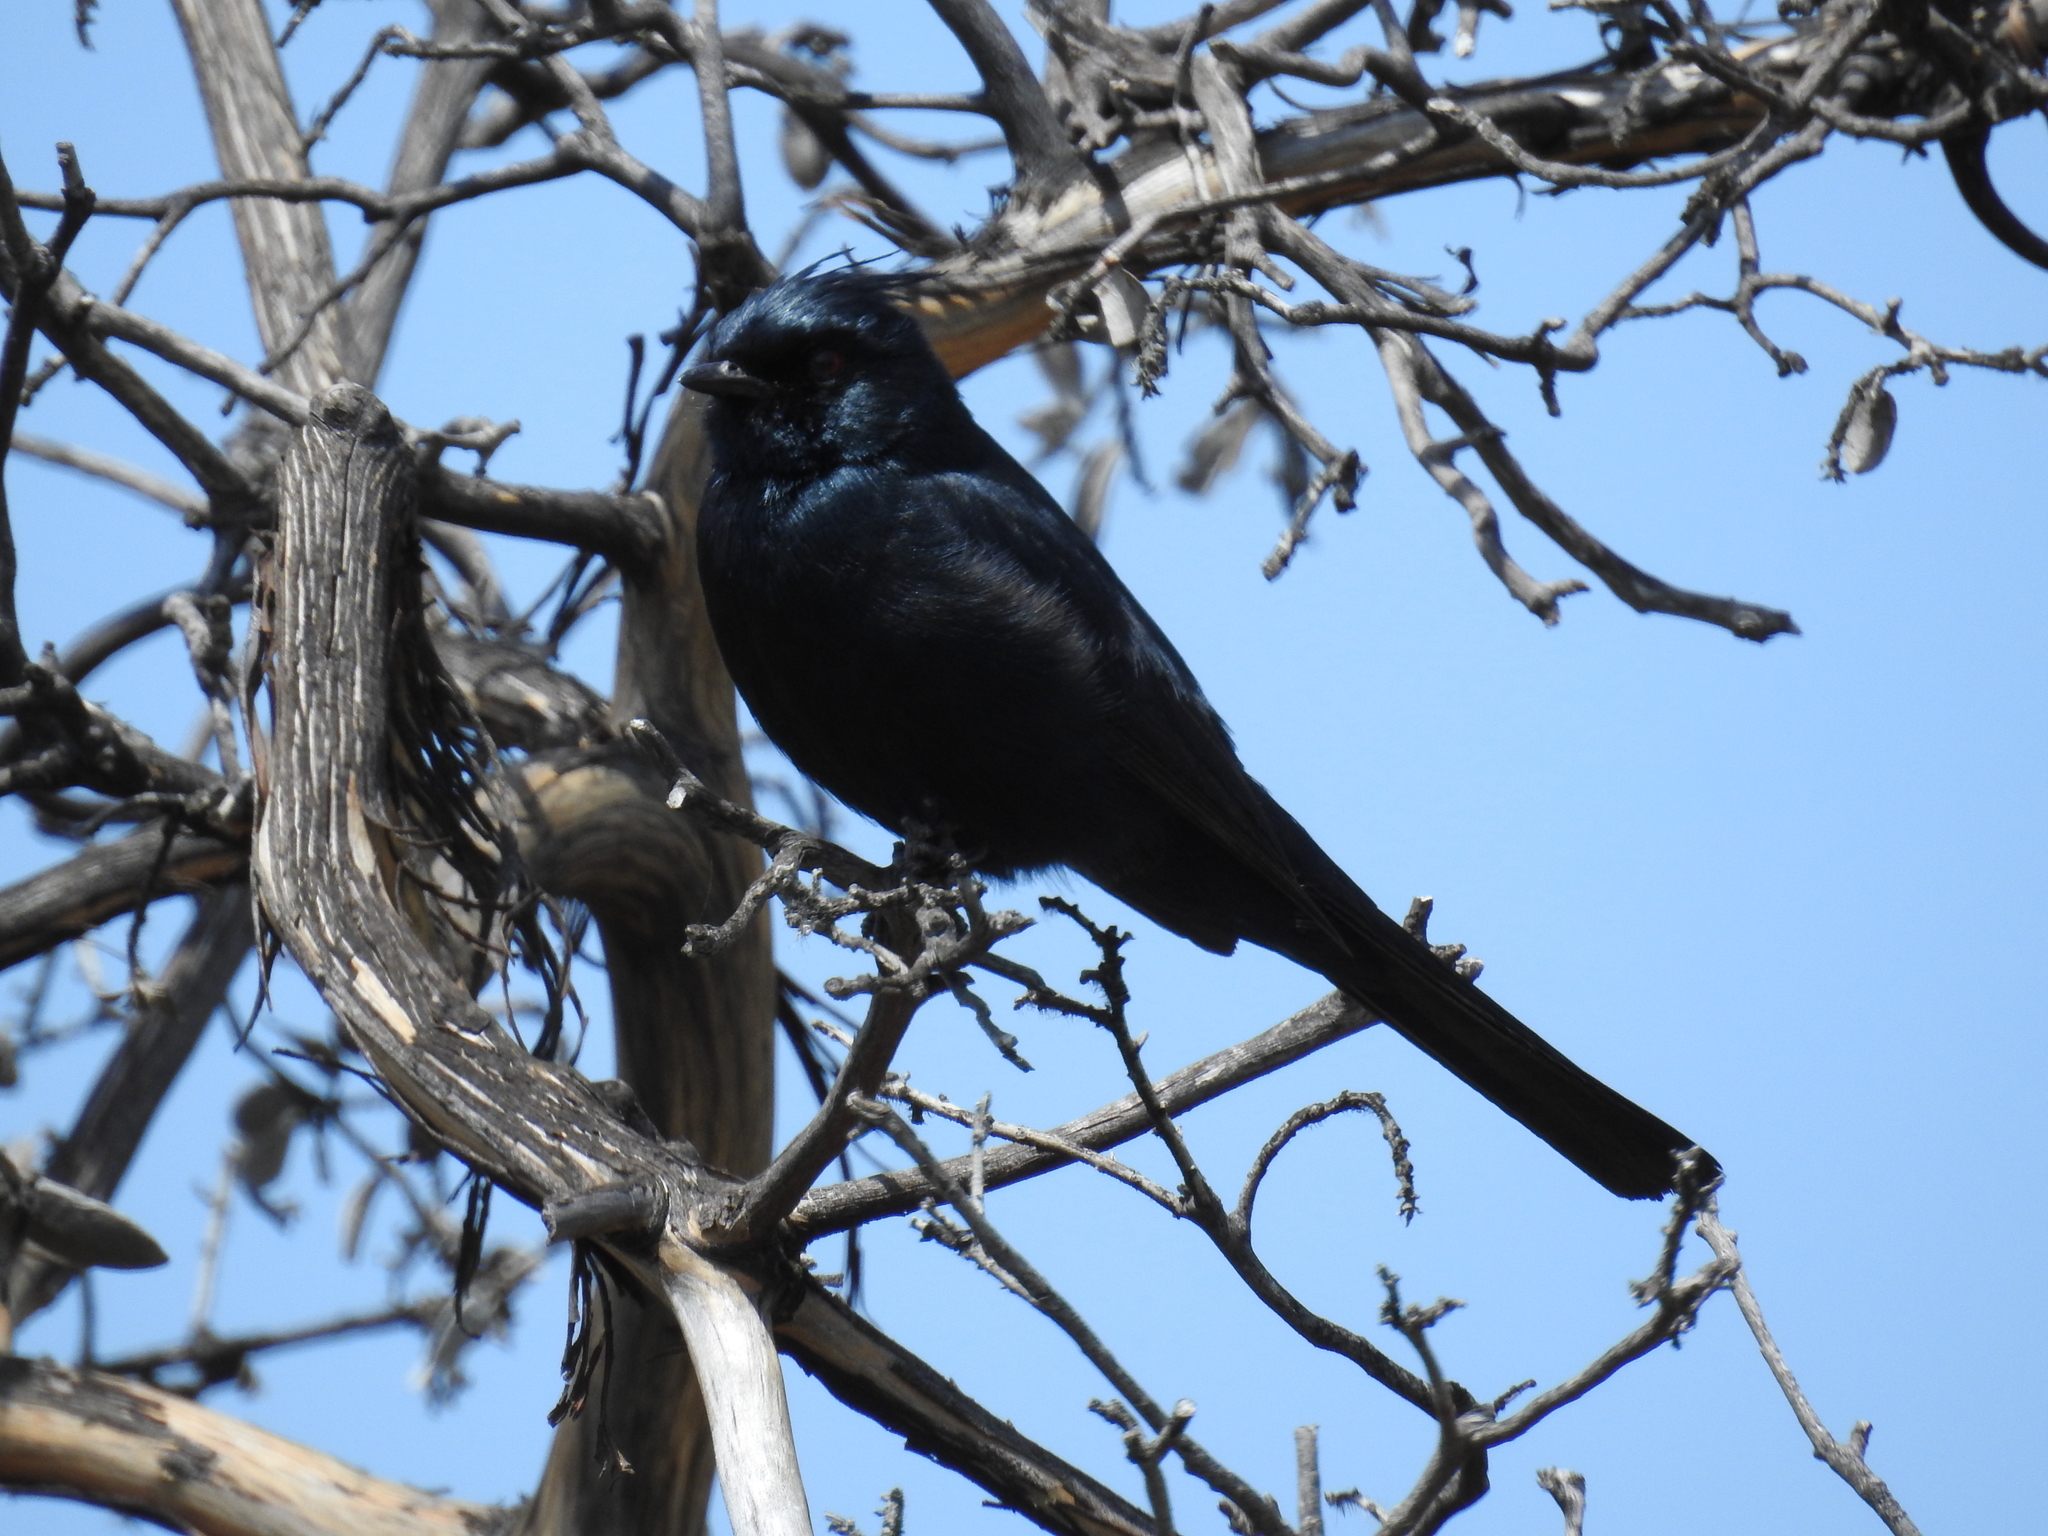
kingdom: Animalia
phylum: Chordata
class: Aves
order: Passeriformes
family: Ptilogonatidae
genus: Phainopepla
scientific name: Phainopepla nitens
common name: Phainopepla
